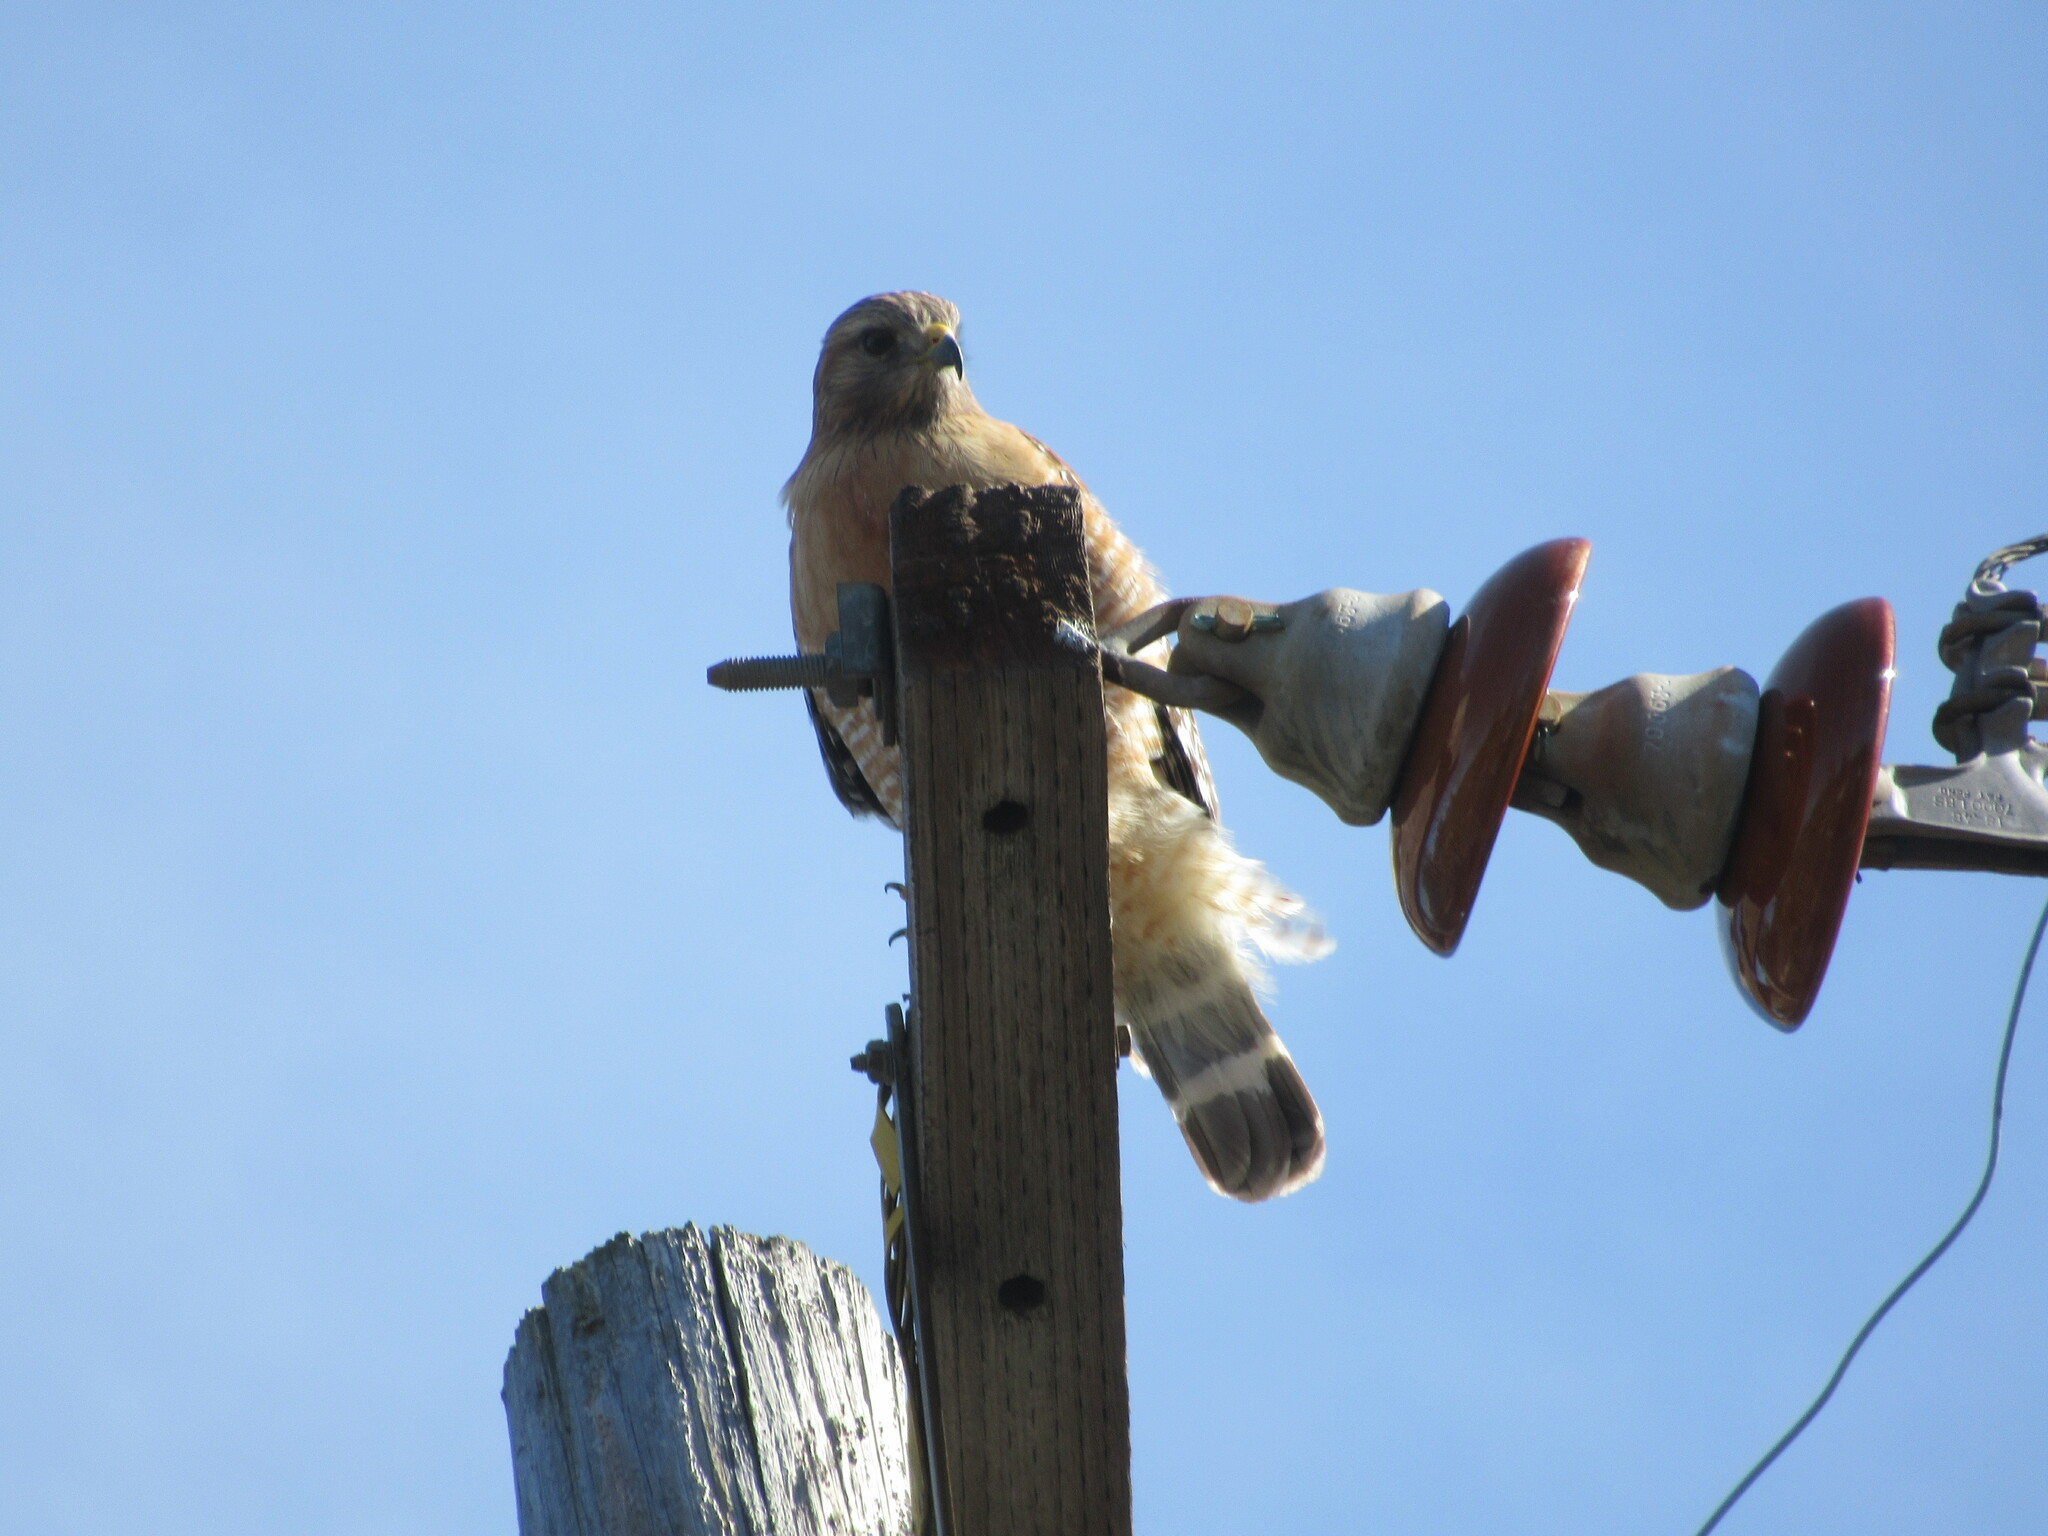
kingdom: Animalia
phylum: Chordata
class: Aves
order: Accipitriformes
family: Accipitridae
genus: Buteo
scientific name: Buteo lineatus
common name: Red-shouldered hawk
